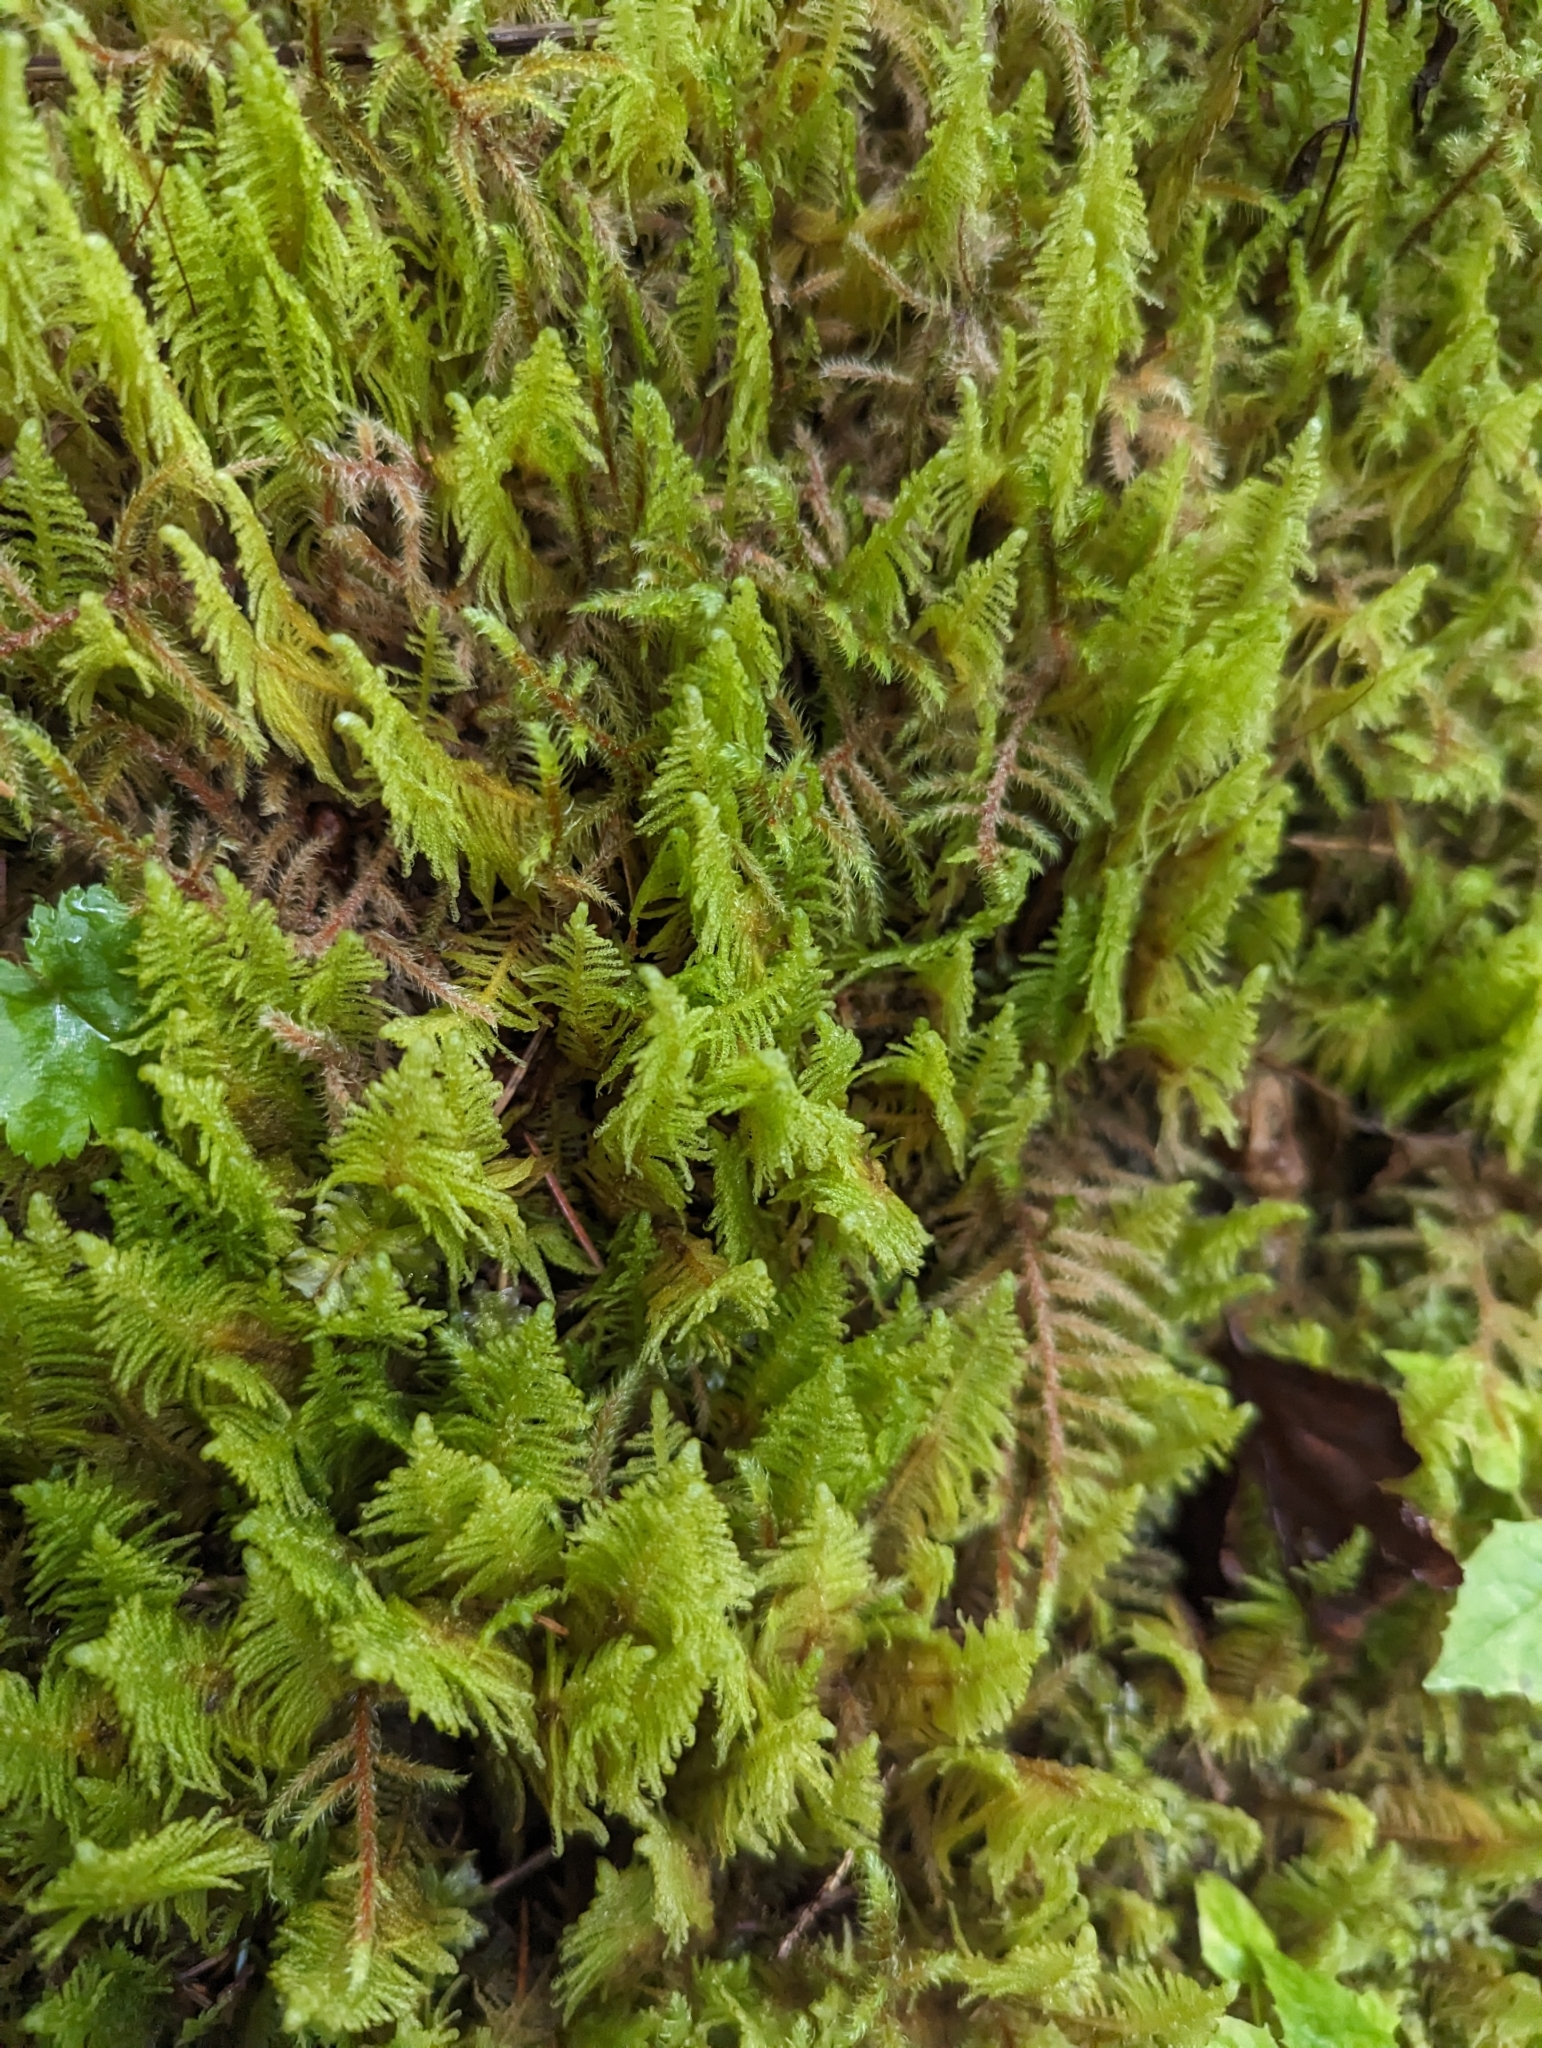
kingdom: Plantae
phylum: Bryophyta
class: Bryopsida
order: Hypnales
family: Pylaisiaceae
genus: Ptilium
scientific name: Ptilium crista-castrensis
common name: Knight's plume moss
